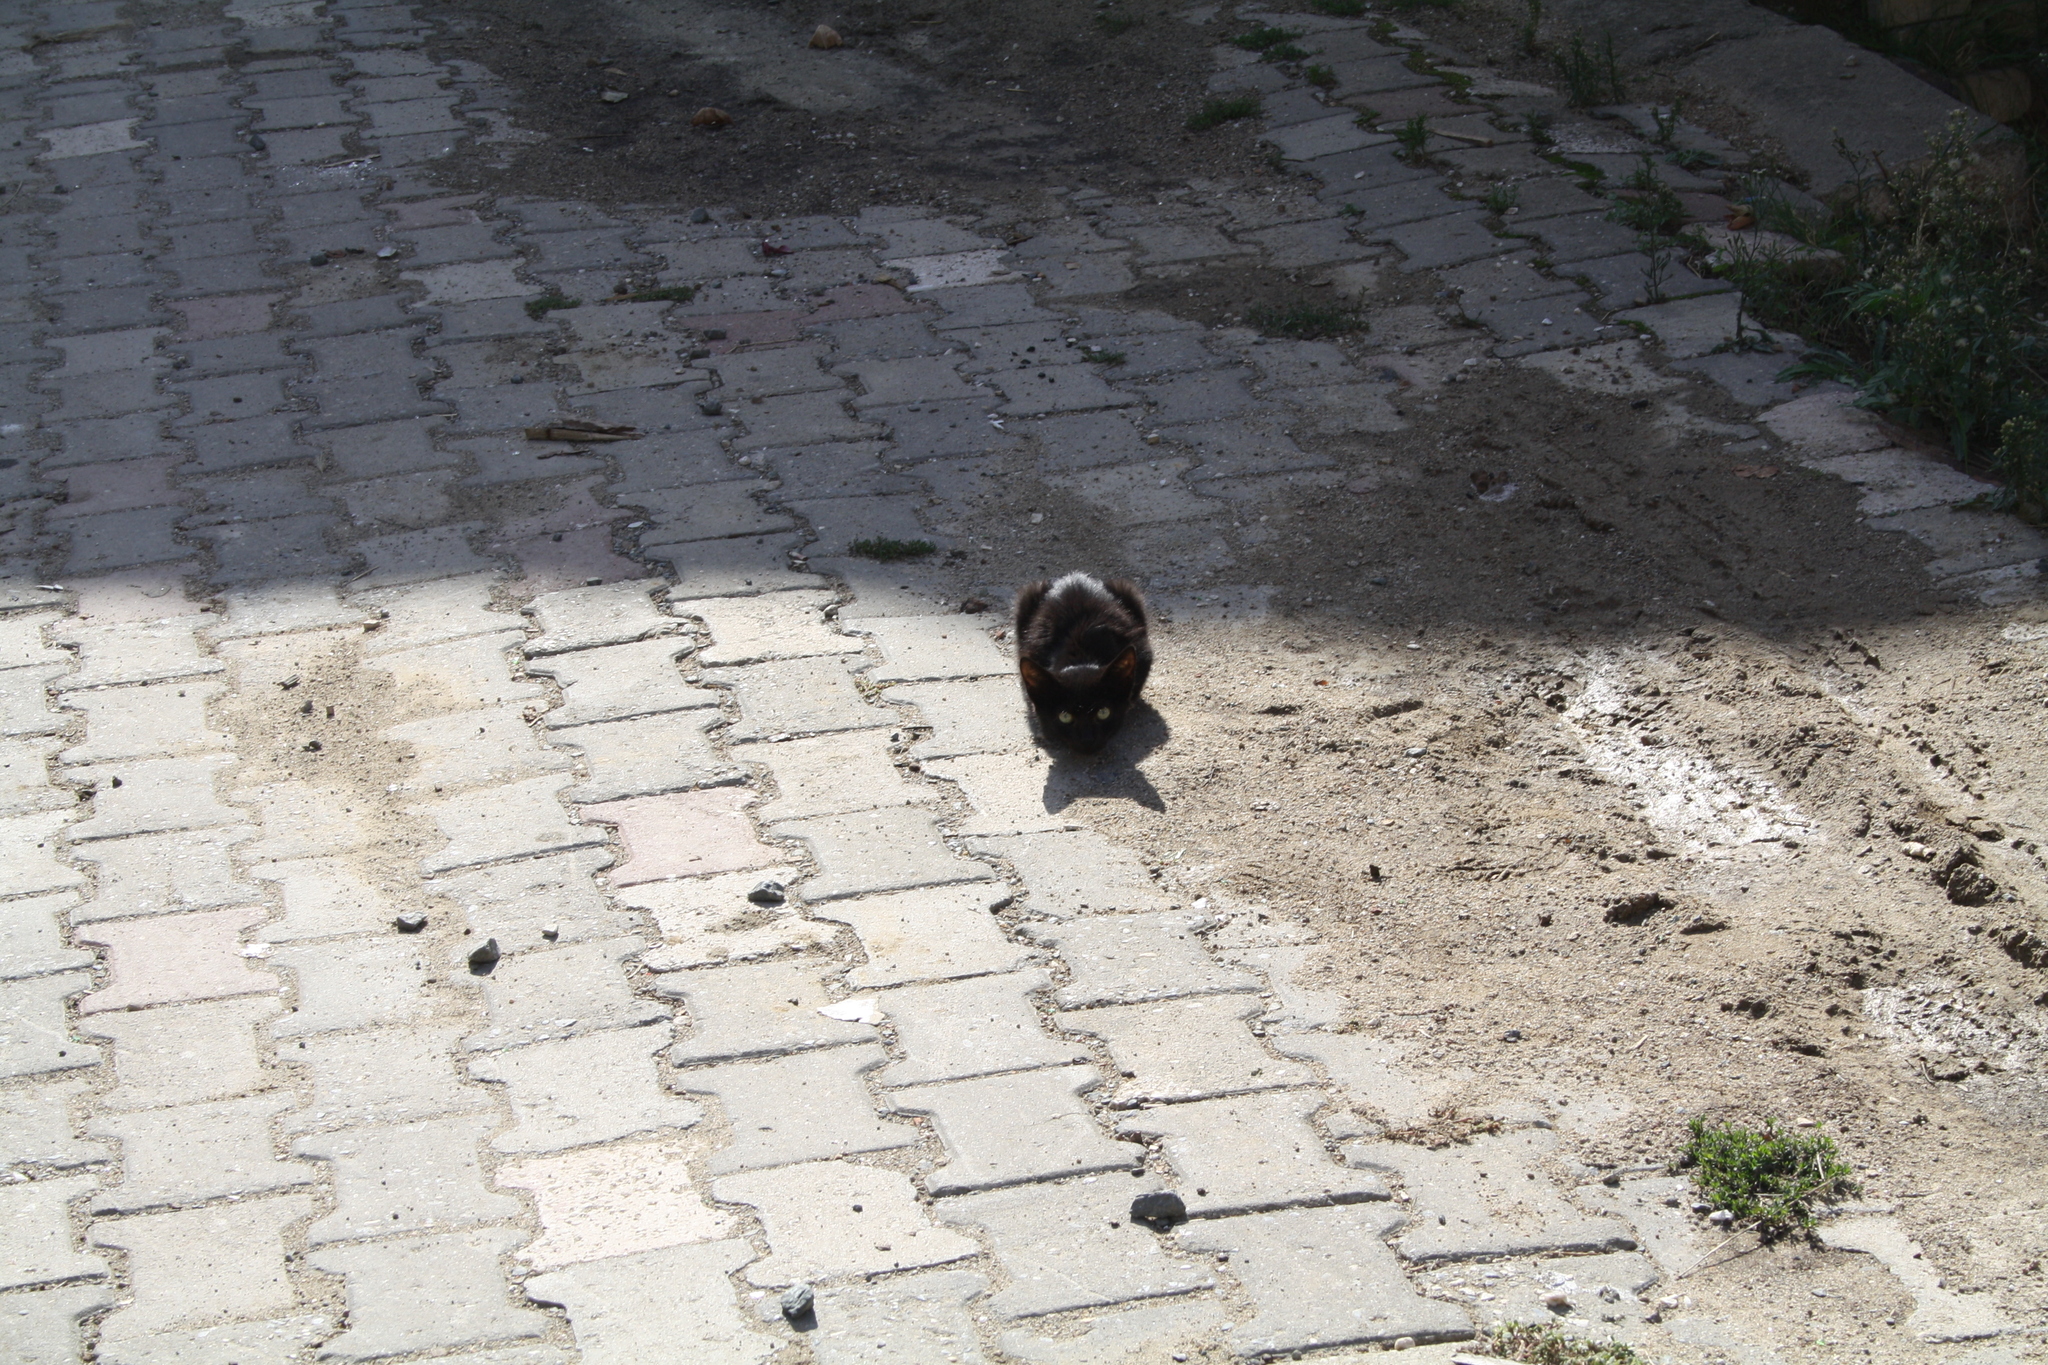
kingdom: Animalia
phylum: Chordata
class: Mammalia
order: Carnivora
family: Felidae
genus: Felis
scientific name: Felis catus
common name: Domestic cat
